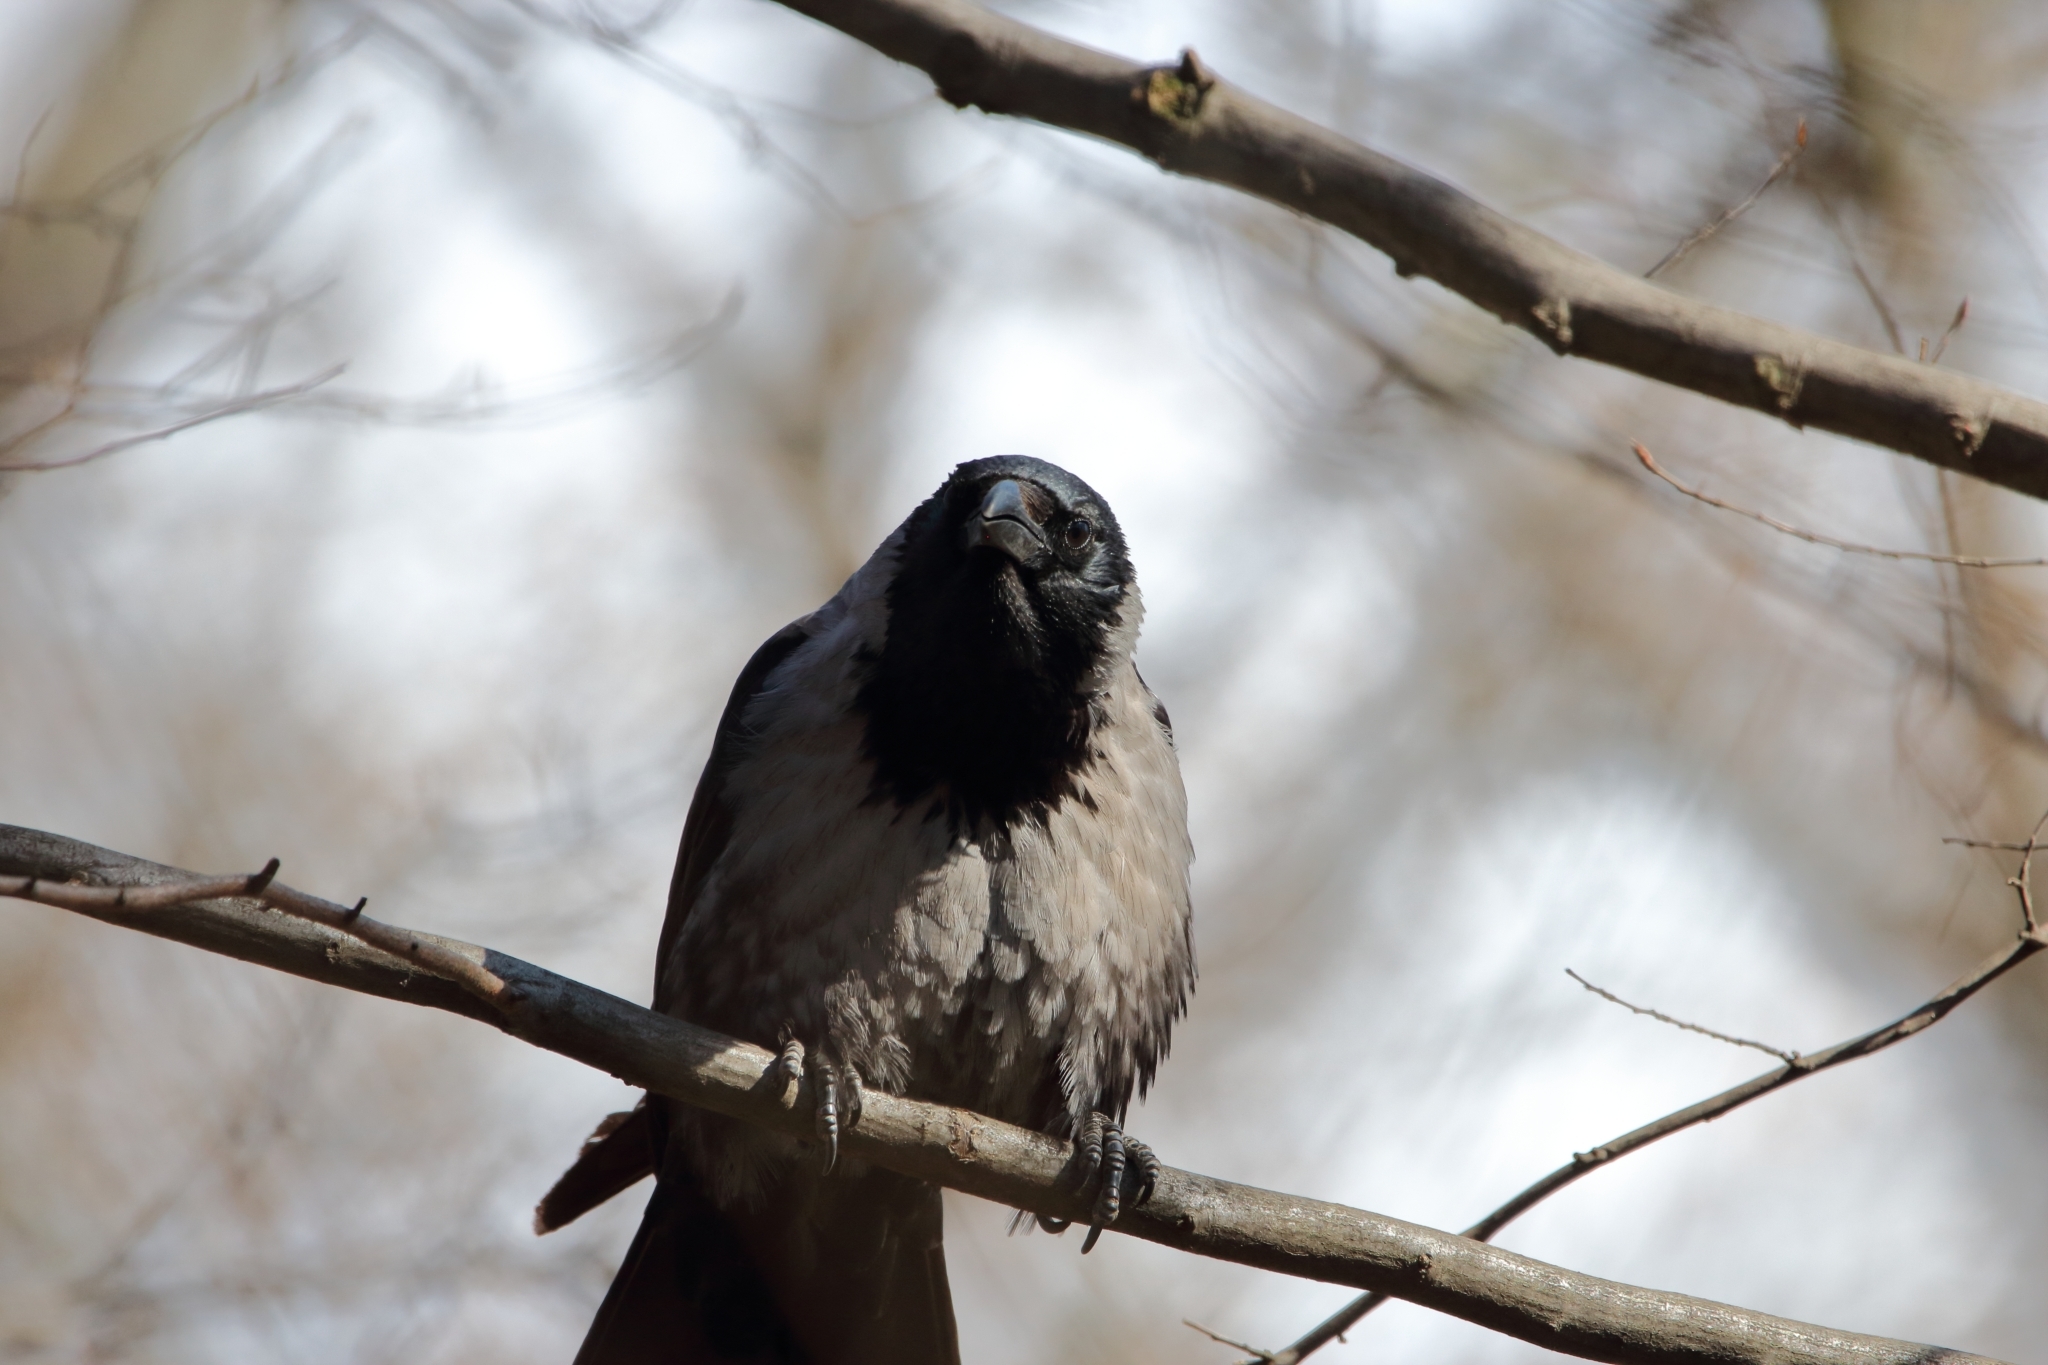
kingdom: Animalia
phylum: Chordata
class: Aves
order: Passeriformes
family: Corvidae
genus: Corvus
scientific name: Corvus
